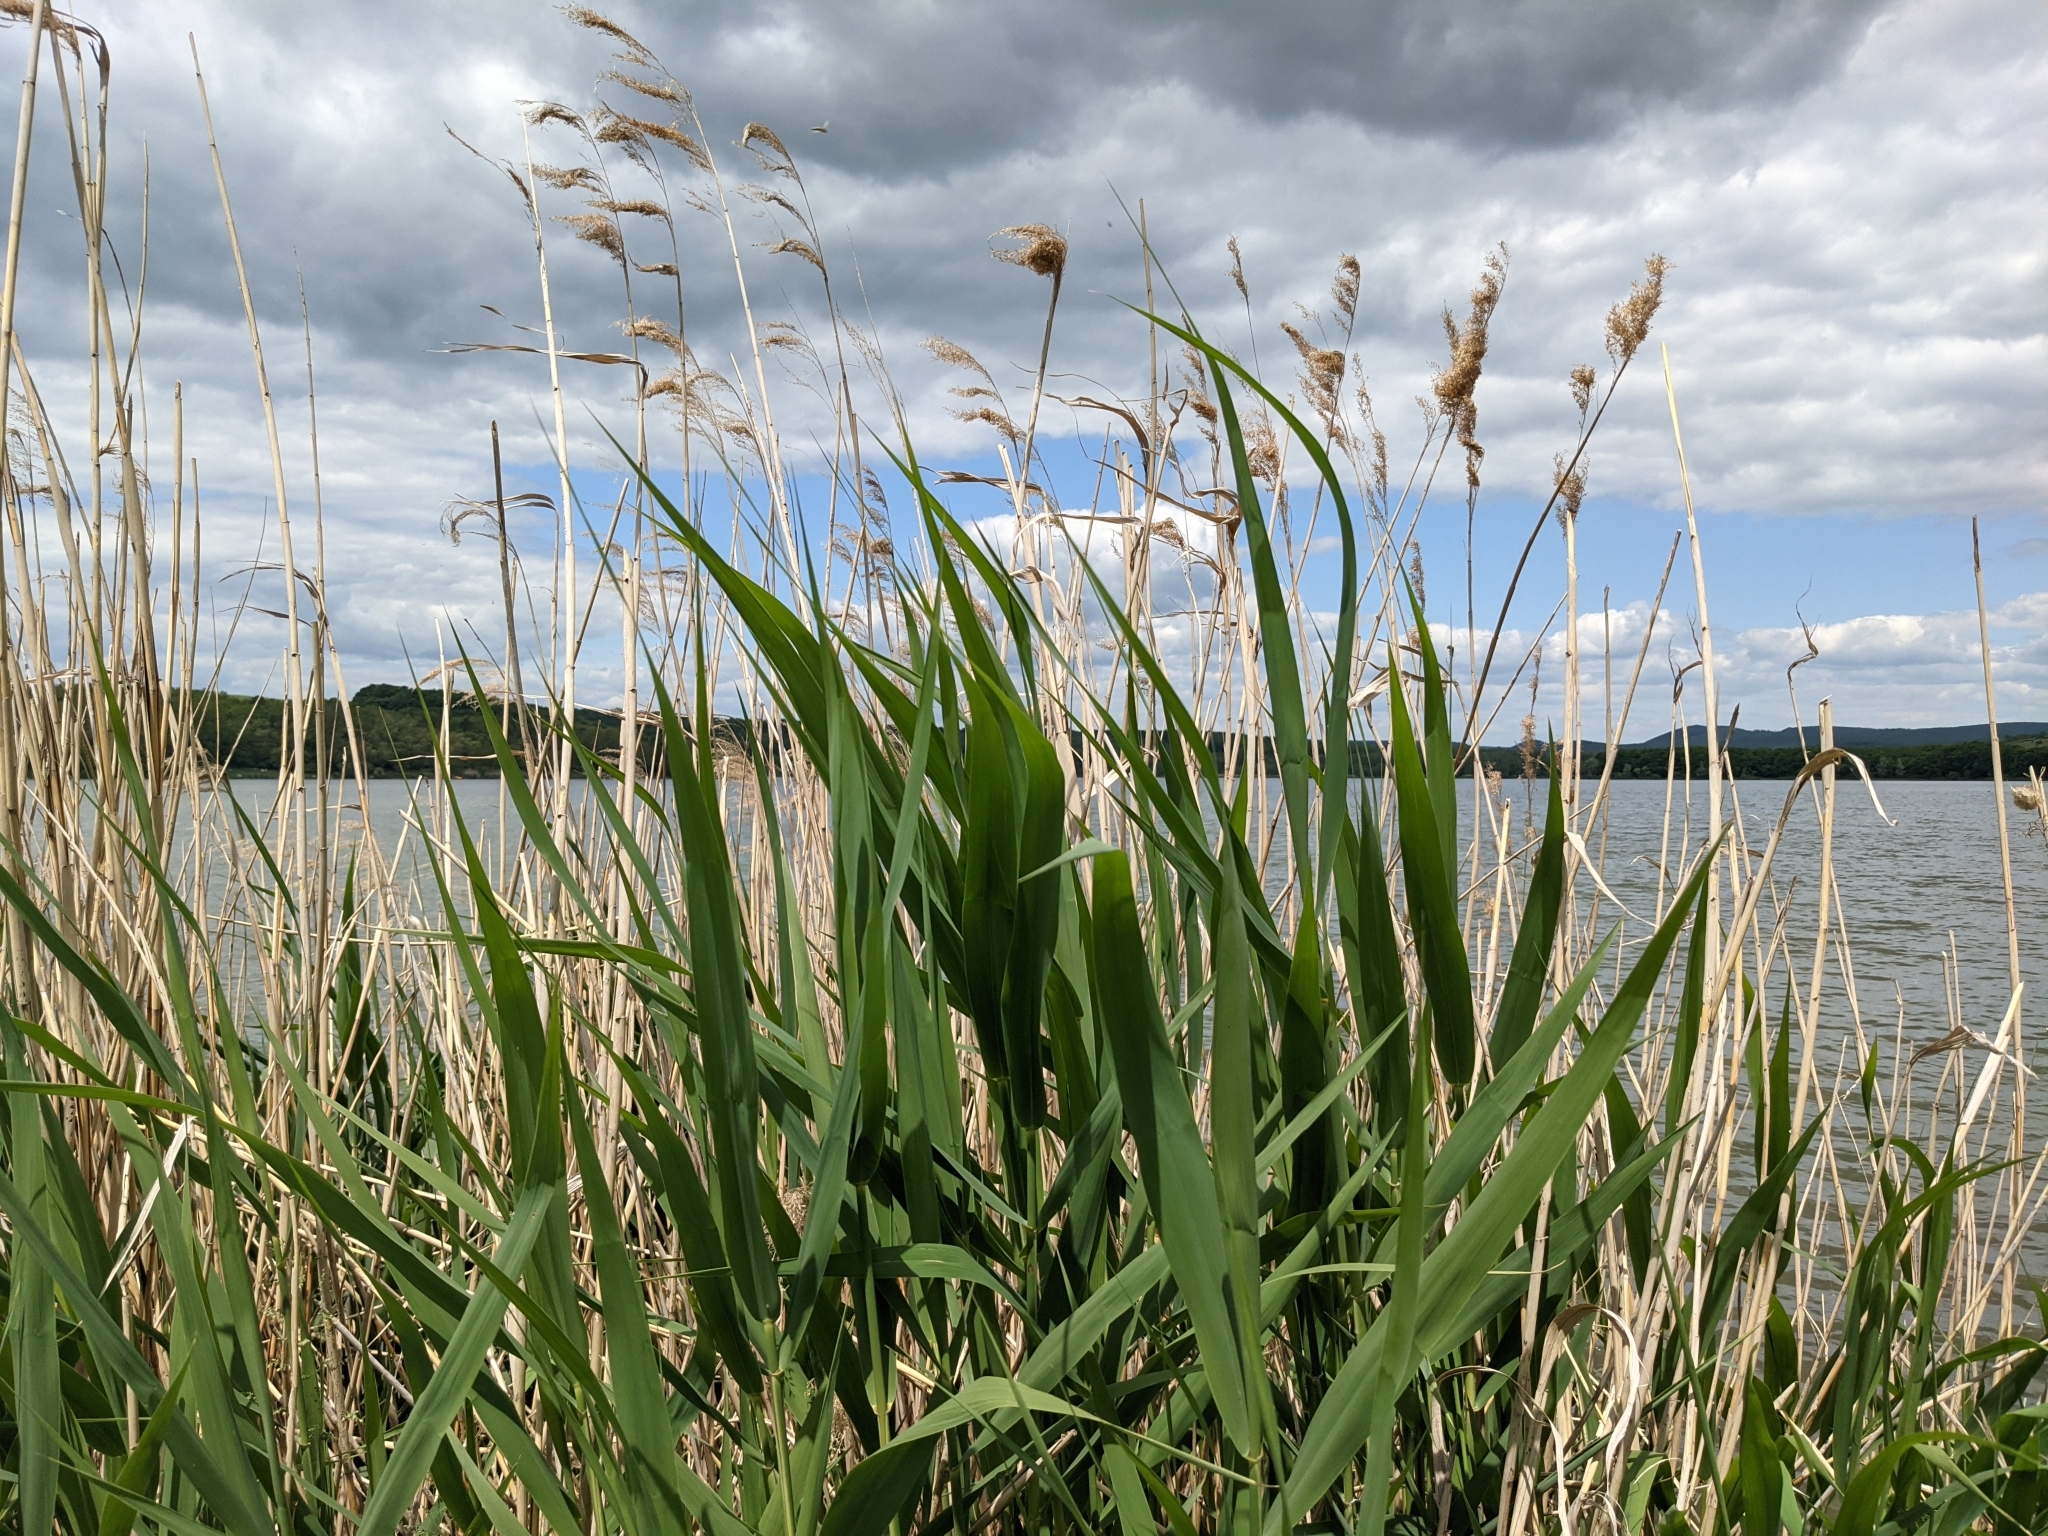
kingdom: Plantae
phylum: Tracheophyta
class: Liliopsida
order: Poales
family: Poaceae
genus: Phragmites
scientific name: Phragmites australis
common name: Common reed
